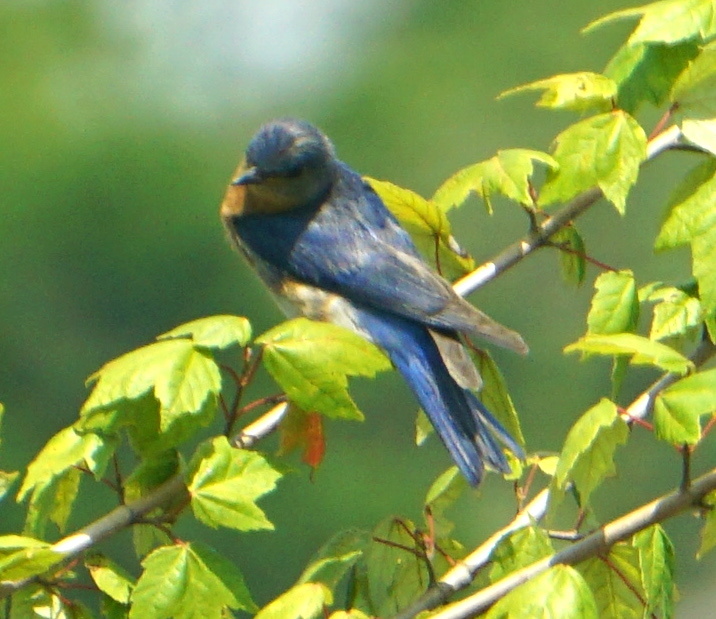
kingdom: Animalia
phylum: Chordata
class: Aves
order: Passeriformes
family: Turdidae
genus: Sialia
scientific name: Sialia sialis
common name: Eastern bluebird
